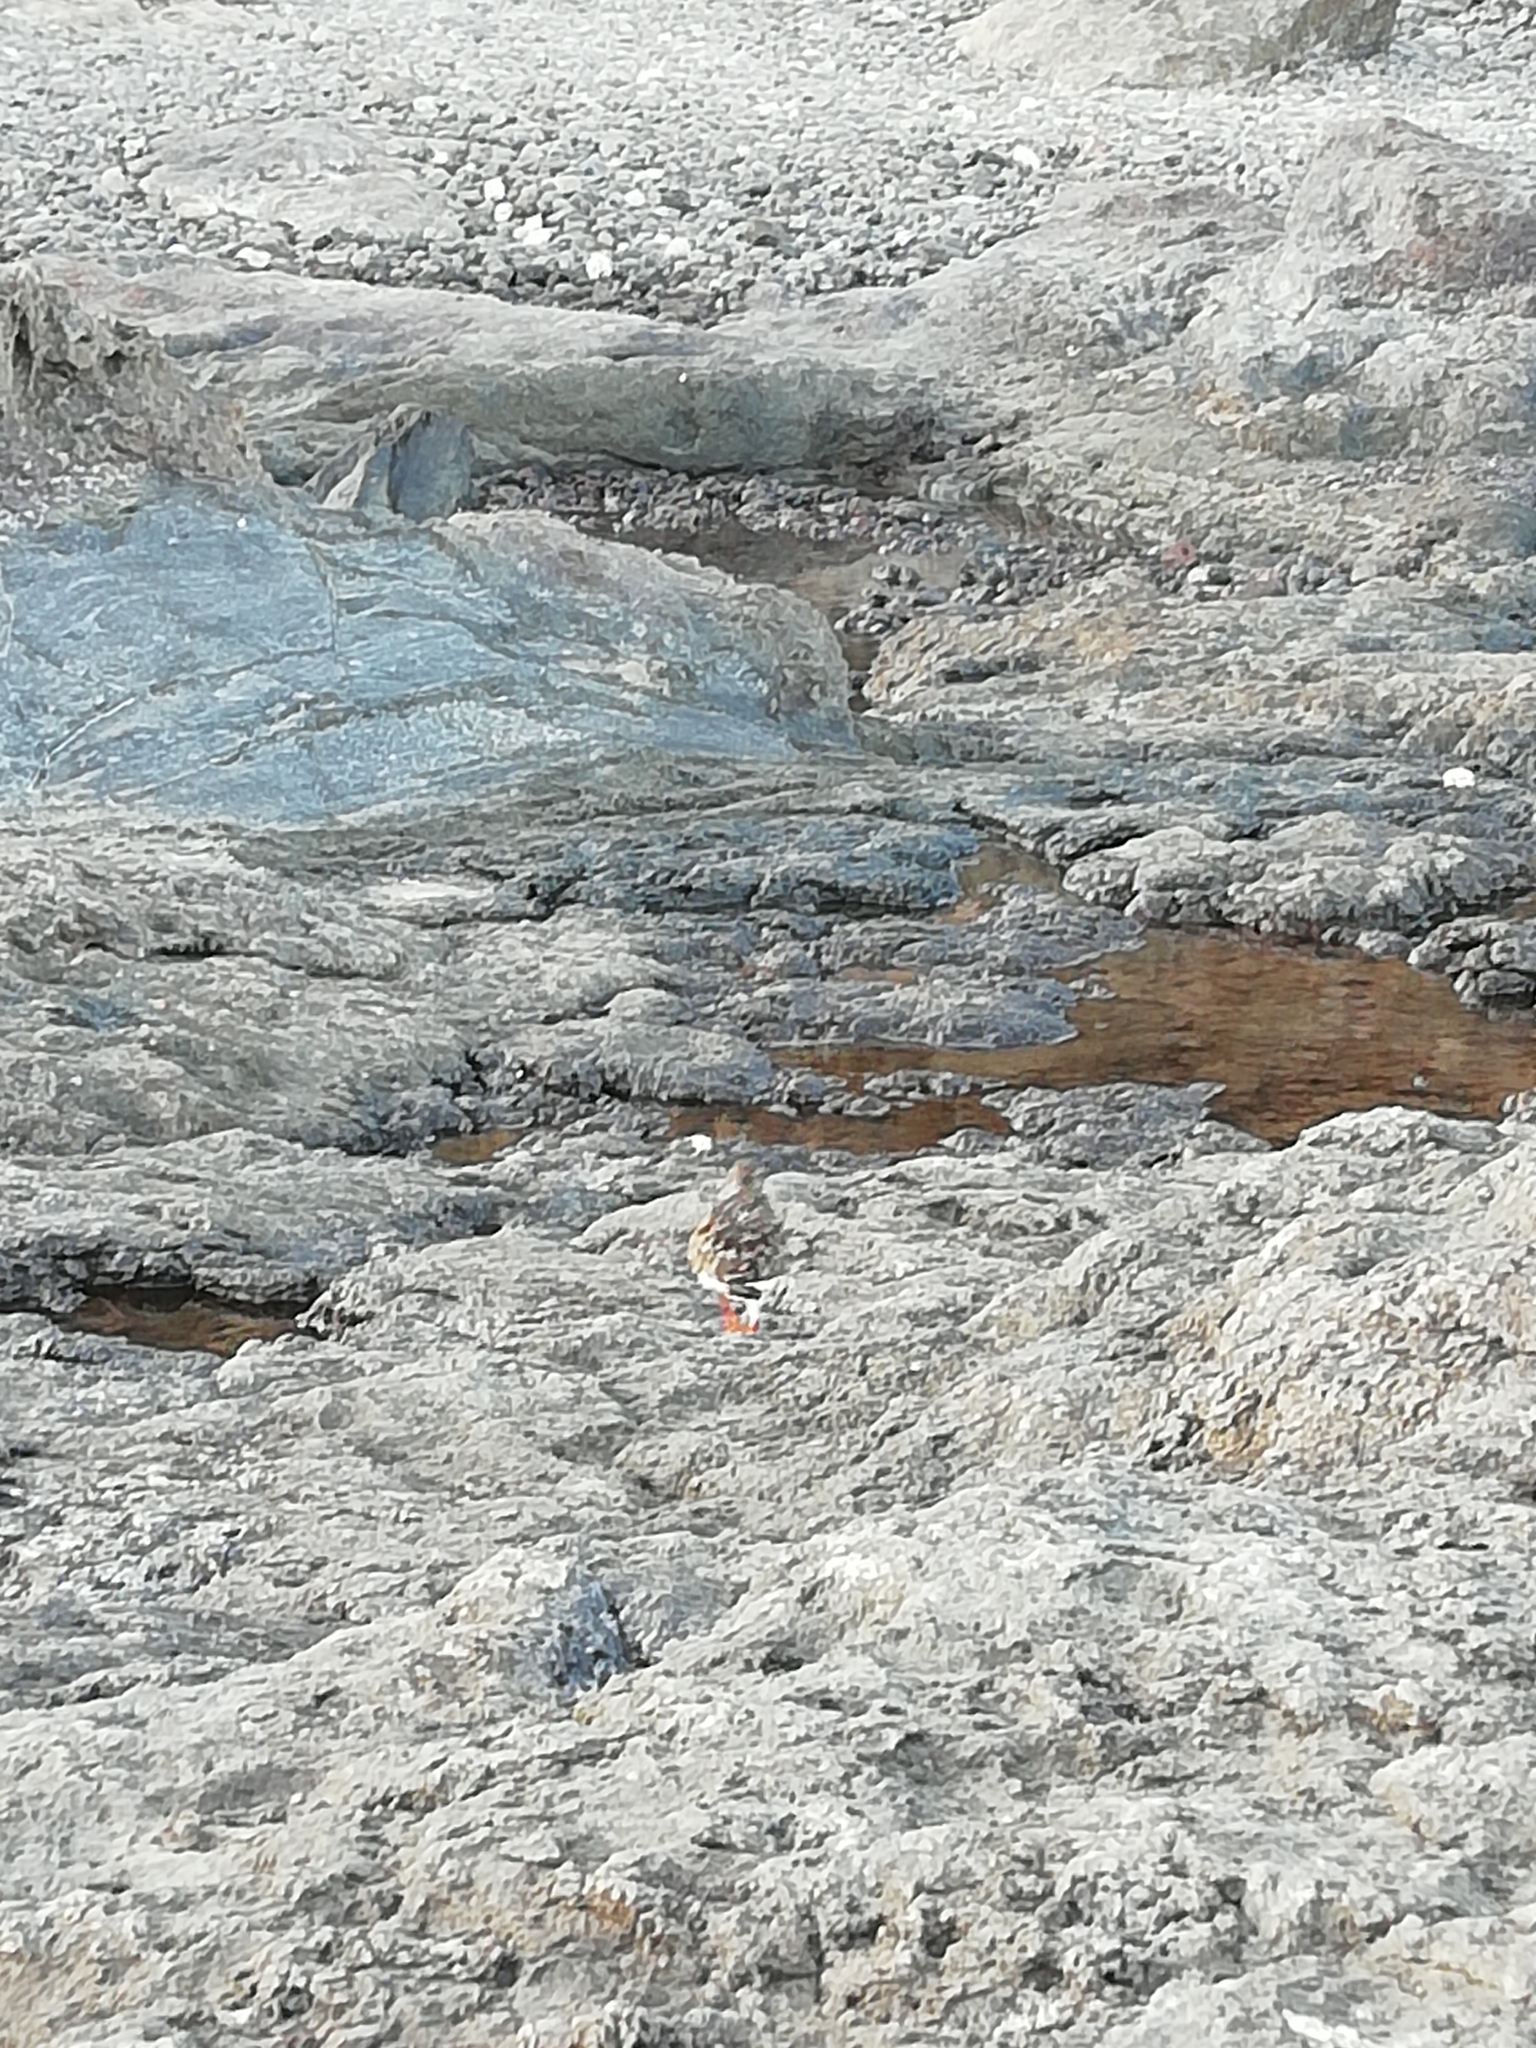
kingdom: Animalia
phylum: Chordata
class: Aves
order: Charadriiformes
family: Scolopacidae
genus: Arenaria
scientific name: Arenaria interpres
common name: Ruddy turnstone
